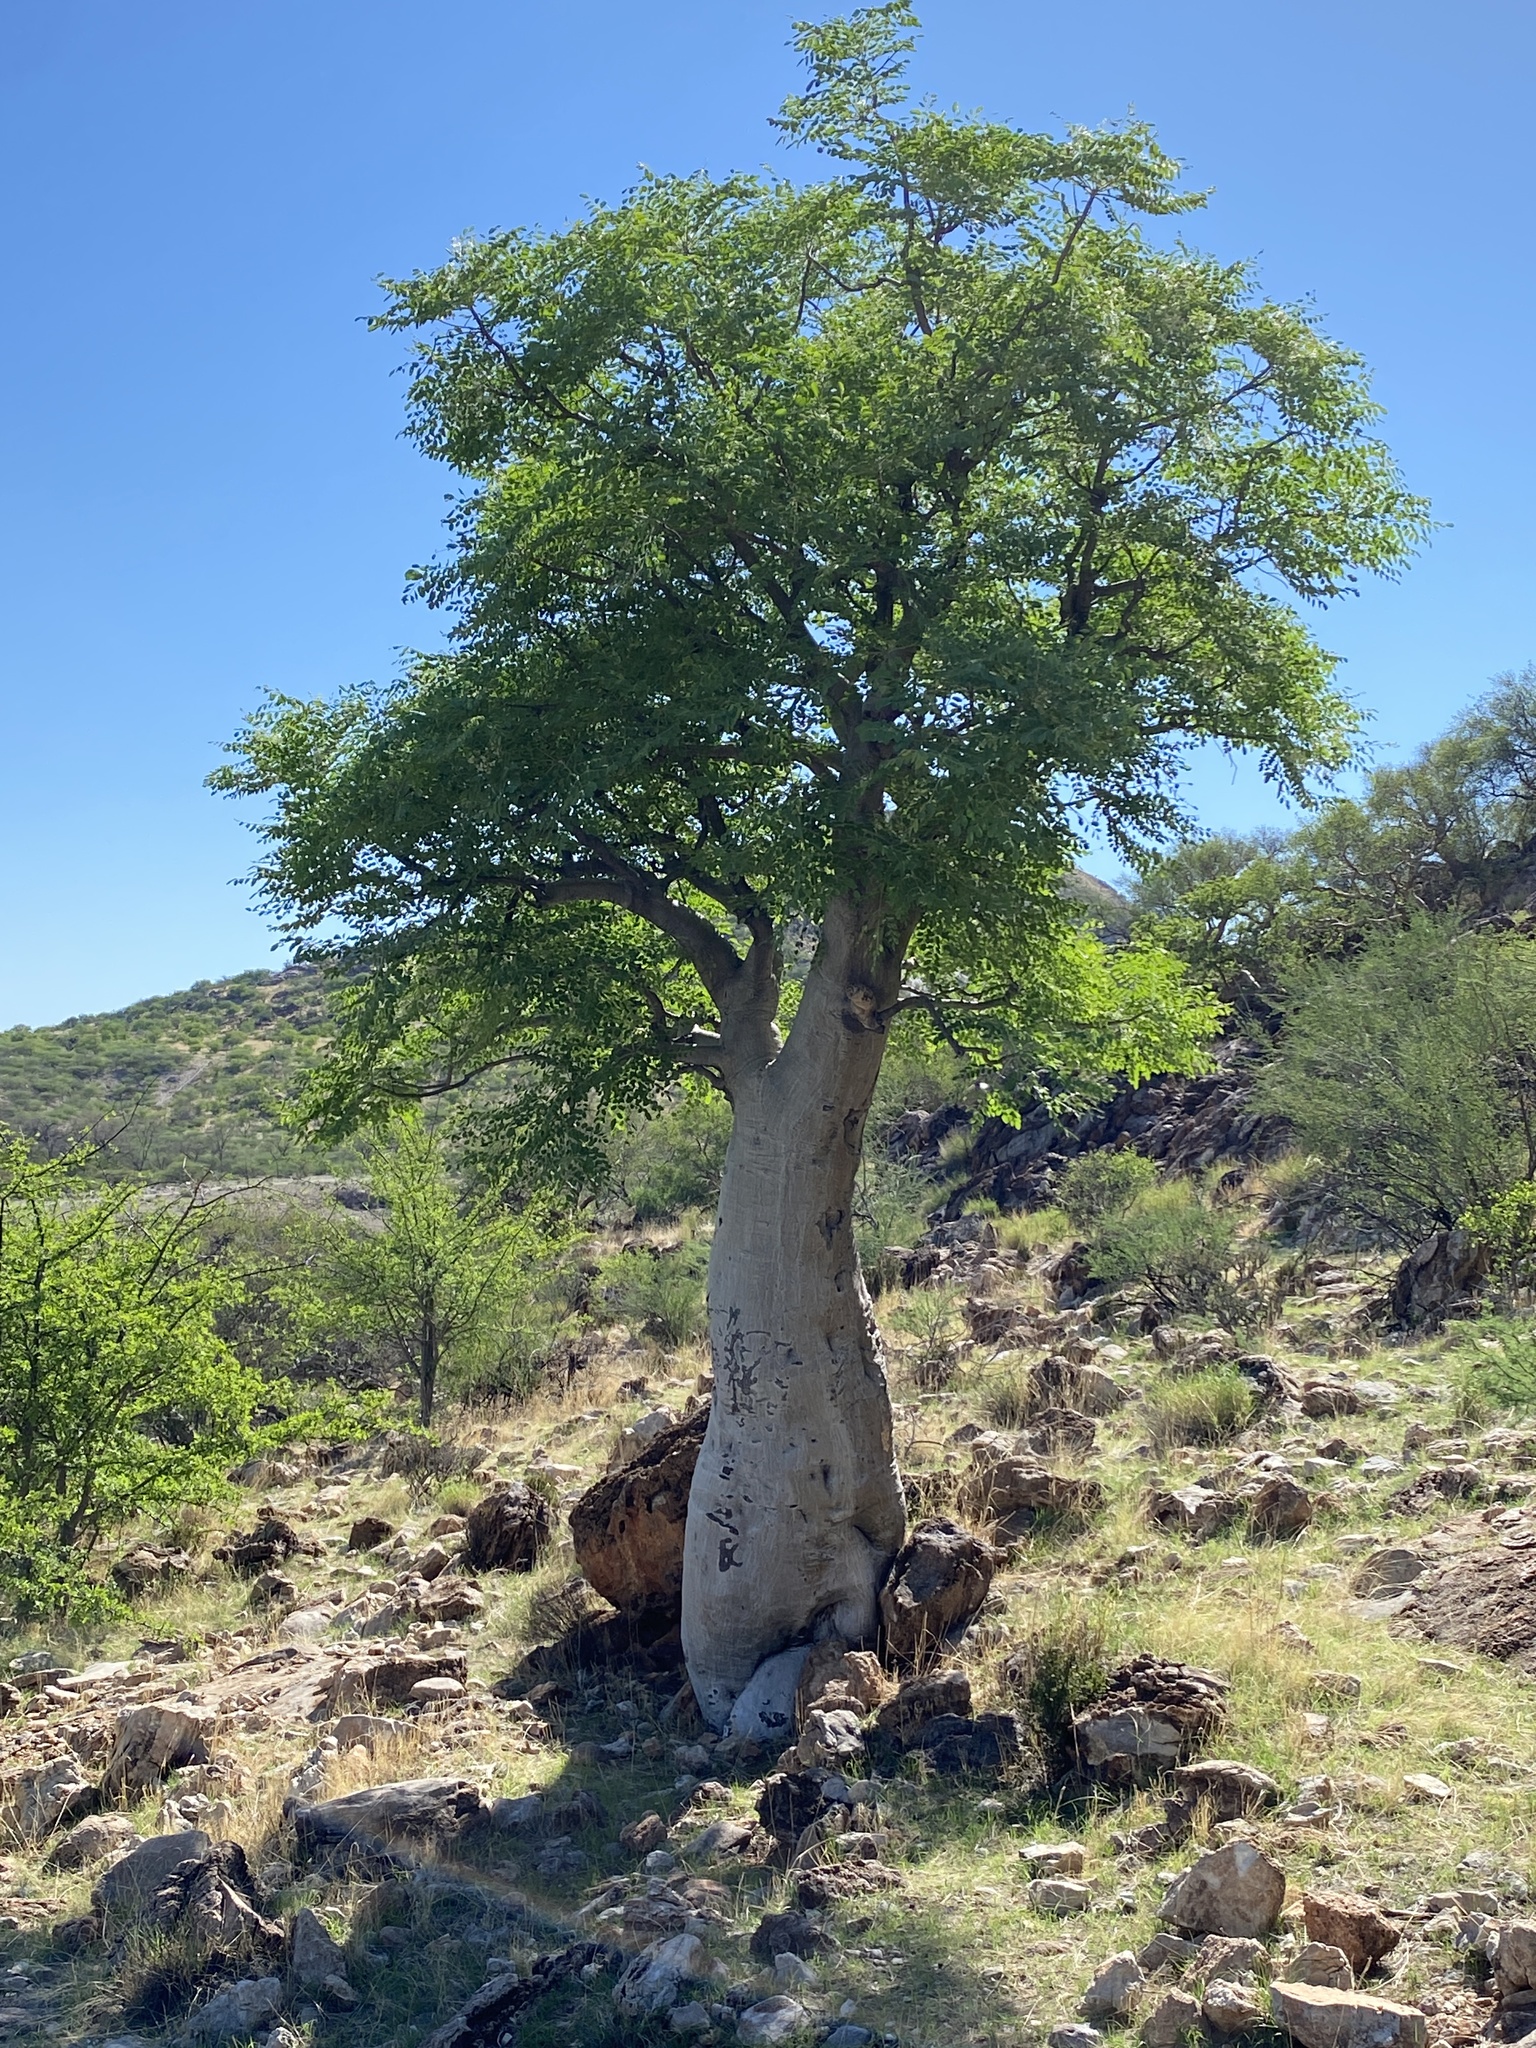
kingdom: Plantae
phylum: Tracheophyta
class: Magnoliopsida
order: Brassicales
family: Moringaceae
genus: Moringa
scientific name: Moringa ovalifolia
